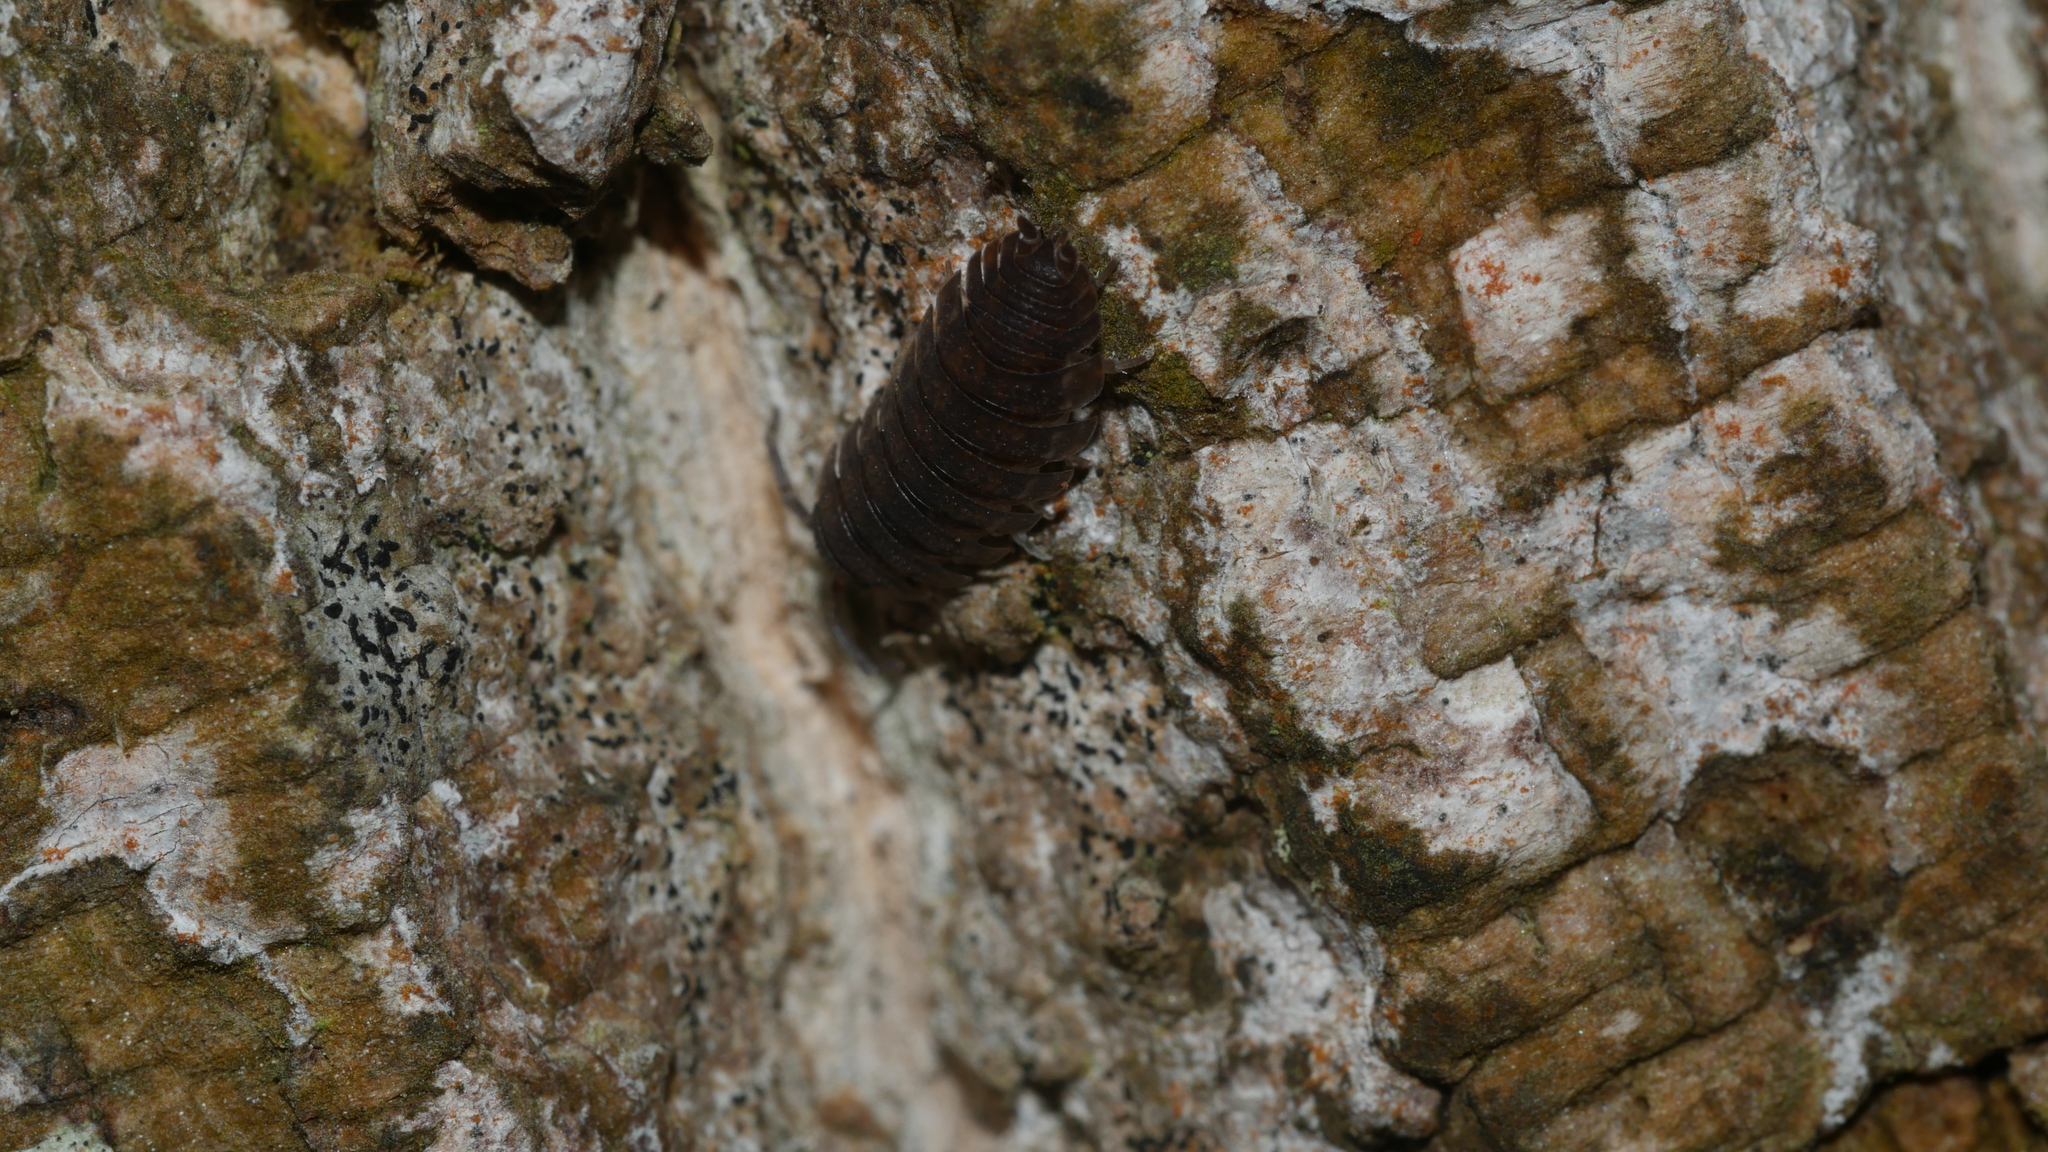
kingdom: Animalia
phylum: Arthropoda
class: Malacostraca
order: Isopoda
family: Porcellionidae
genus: Porcellio
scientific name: Porcellio scaber
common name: Common rough woodlouse
